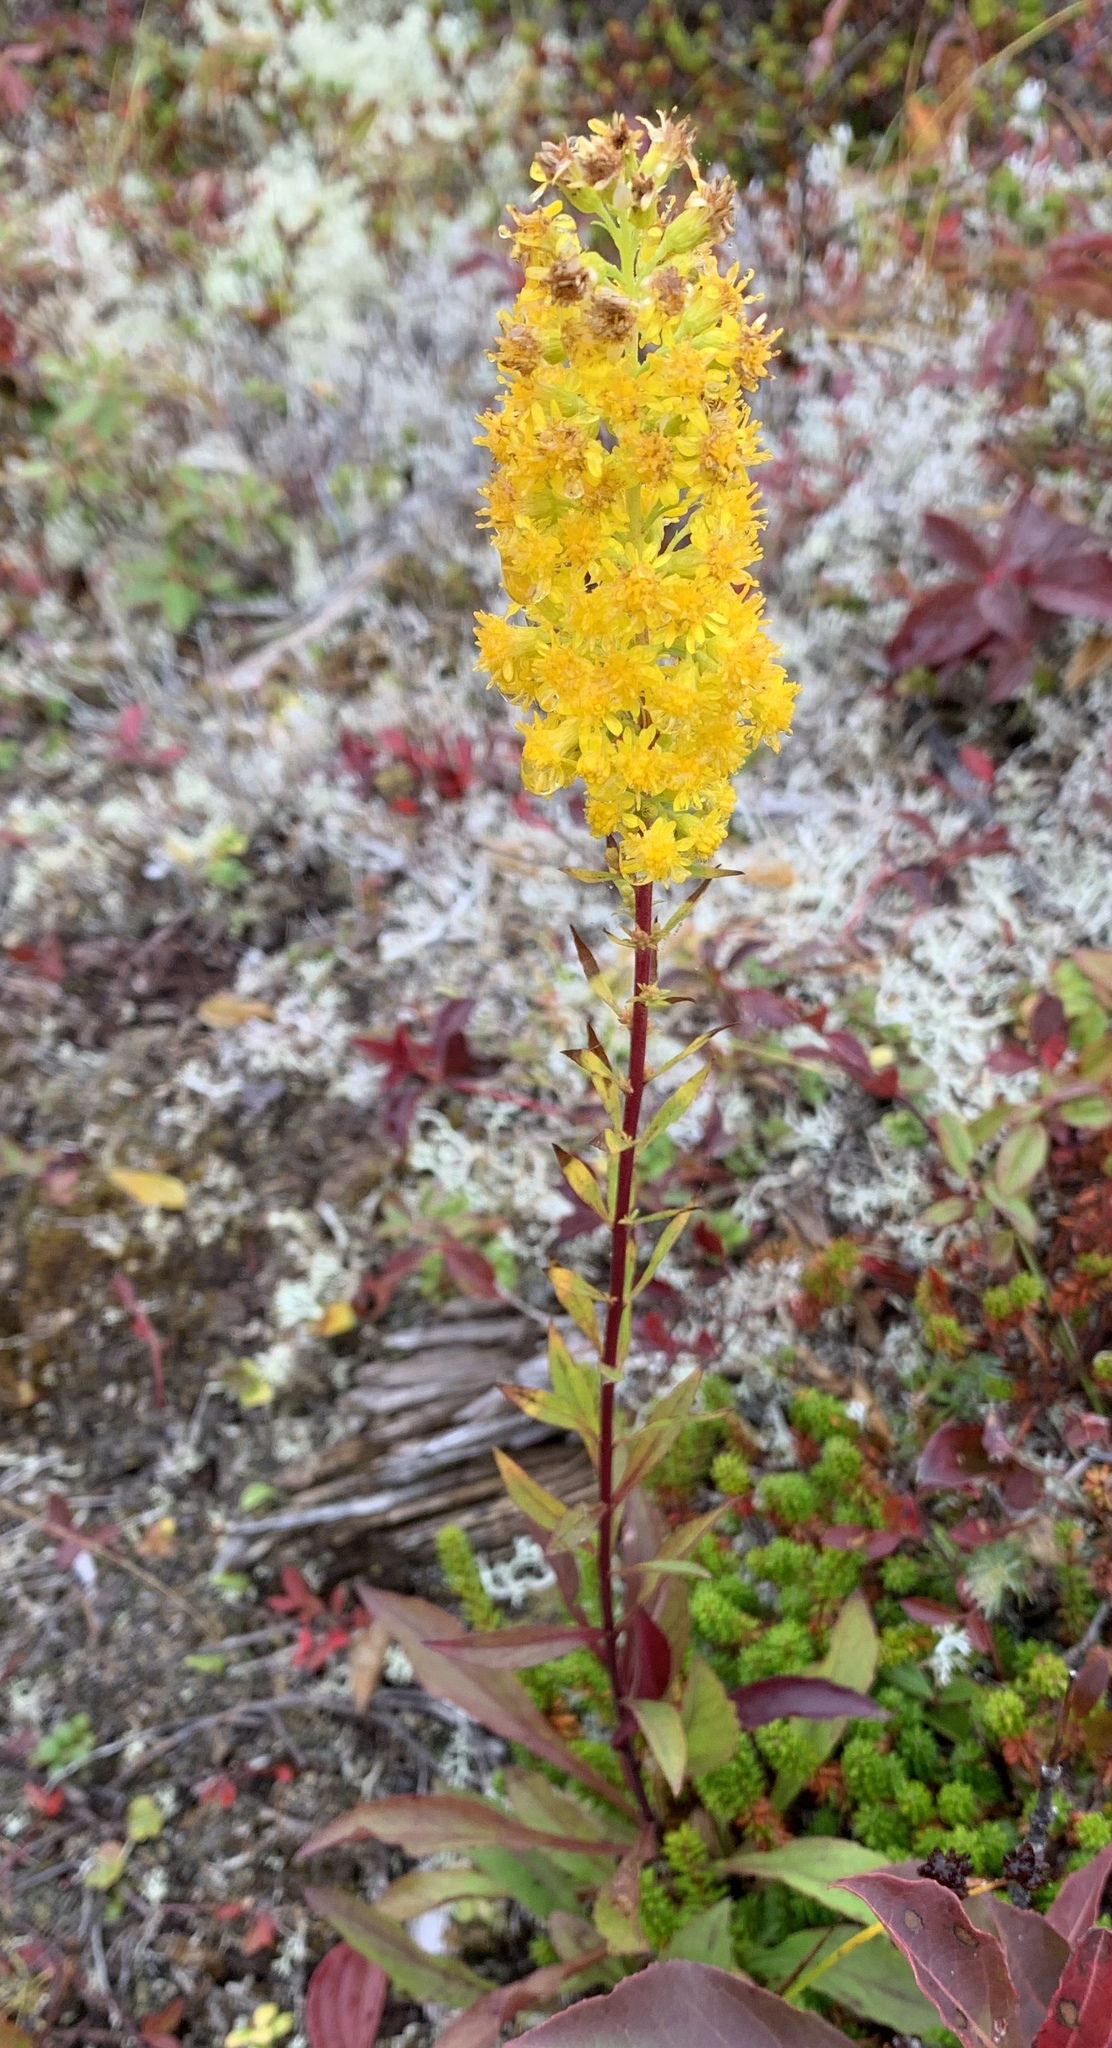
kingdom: Plantae
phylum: Tracheophyta
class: Magnoliopsida
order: Asterales
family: Asteraceae
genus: Solidago
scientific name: Solidago puberula
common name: Downy goldenrod
